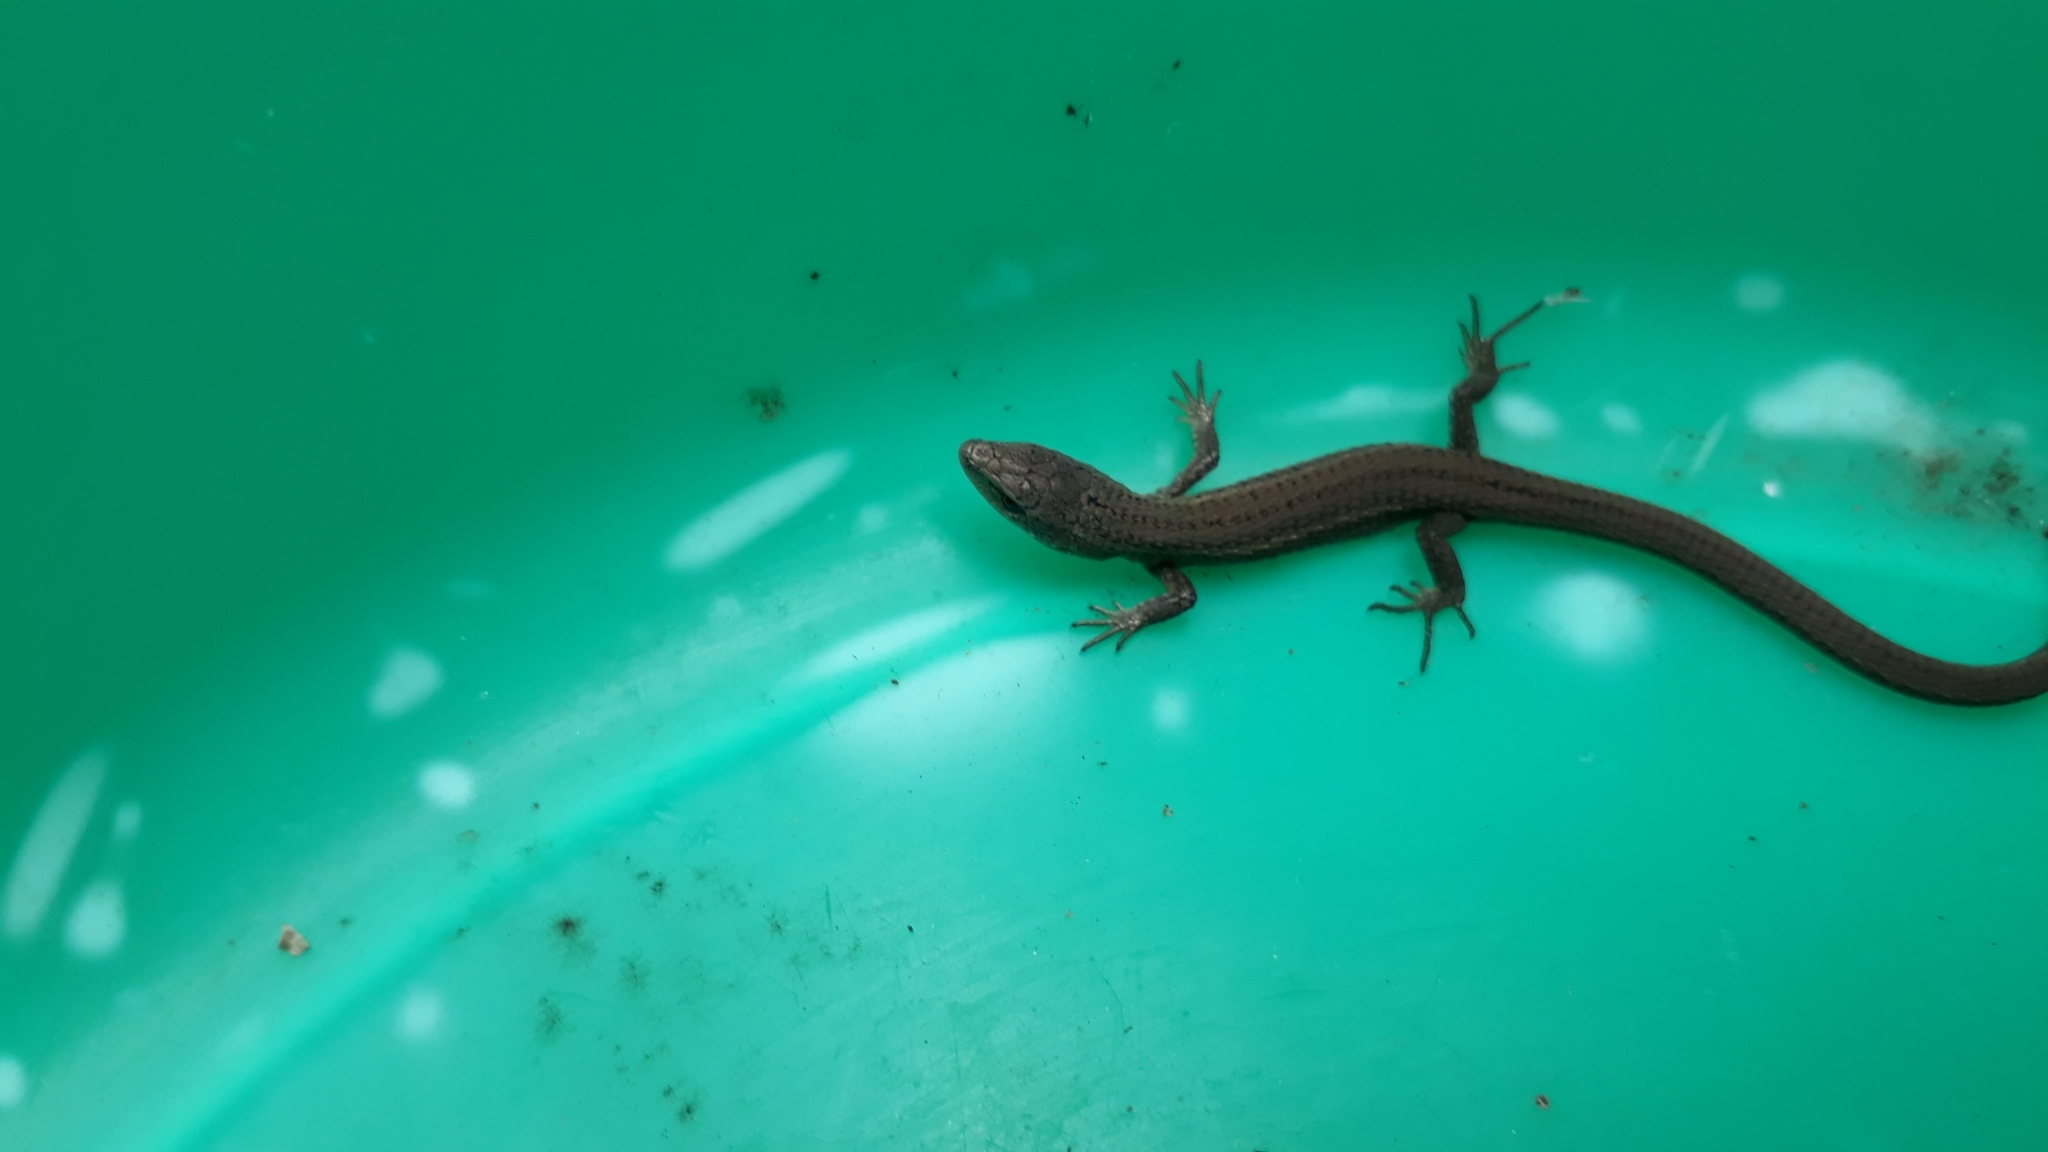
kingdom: Animalia
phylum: Chordata
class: Squamata
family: Gymnophthalmidae
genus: Cercosaura
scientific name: Cercosaura schreibersii
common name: Schreibers' many-fingered teiid
